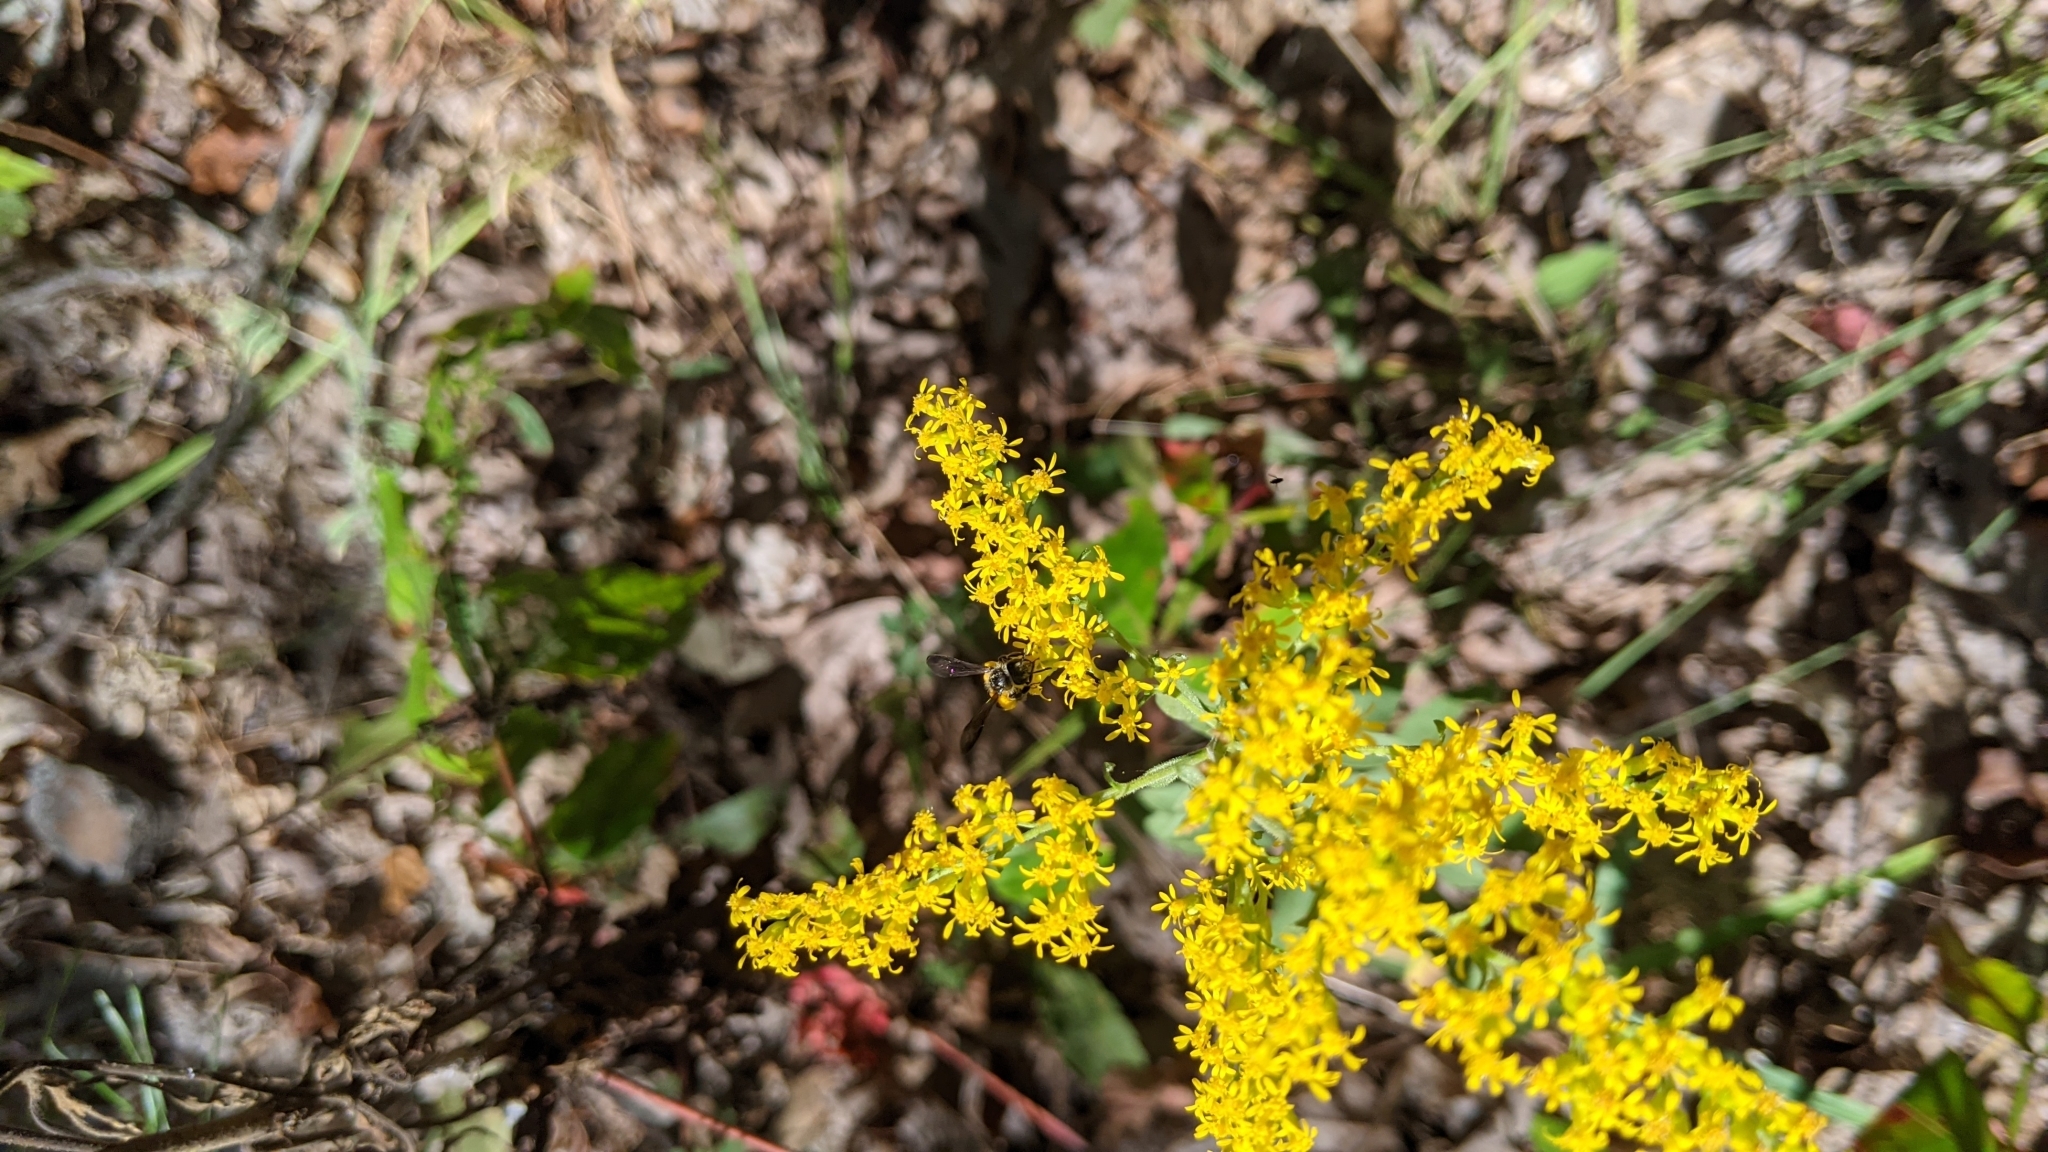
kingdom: Animalia
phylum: Arthropoda
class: Insecta
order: Hymenoptera
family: Andrenidae
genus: Andrena
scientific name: Andrena nubecula
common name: Cloudy-winged mining bee
